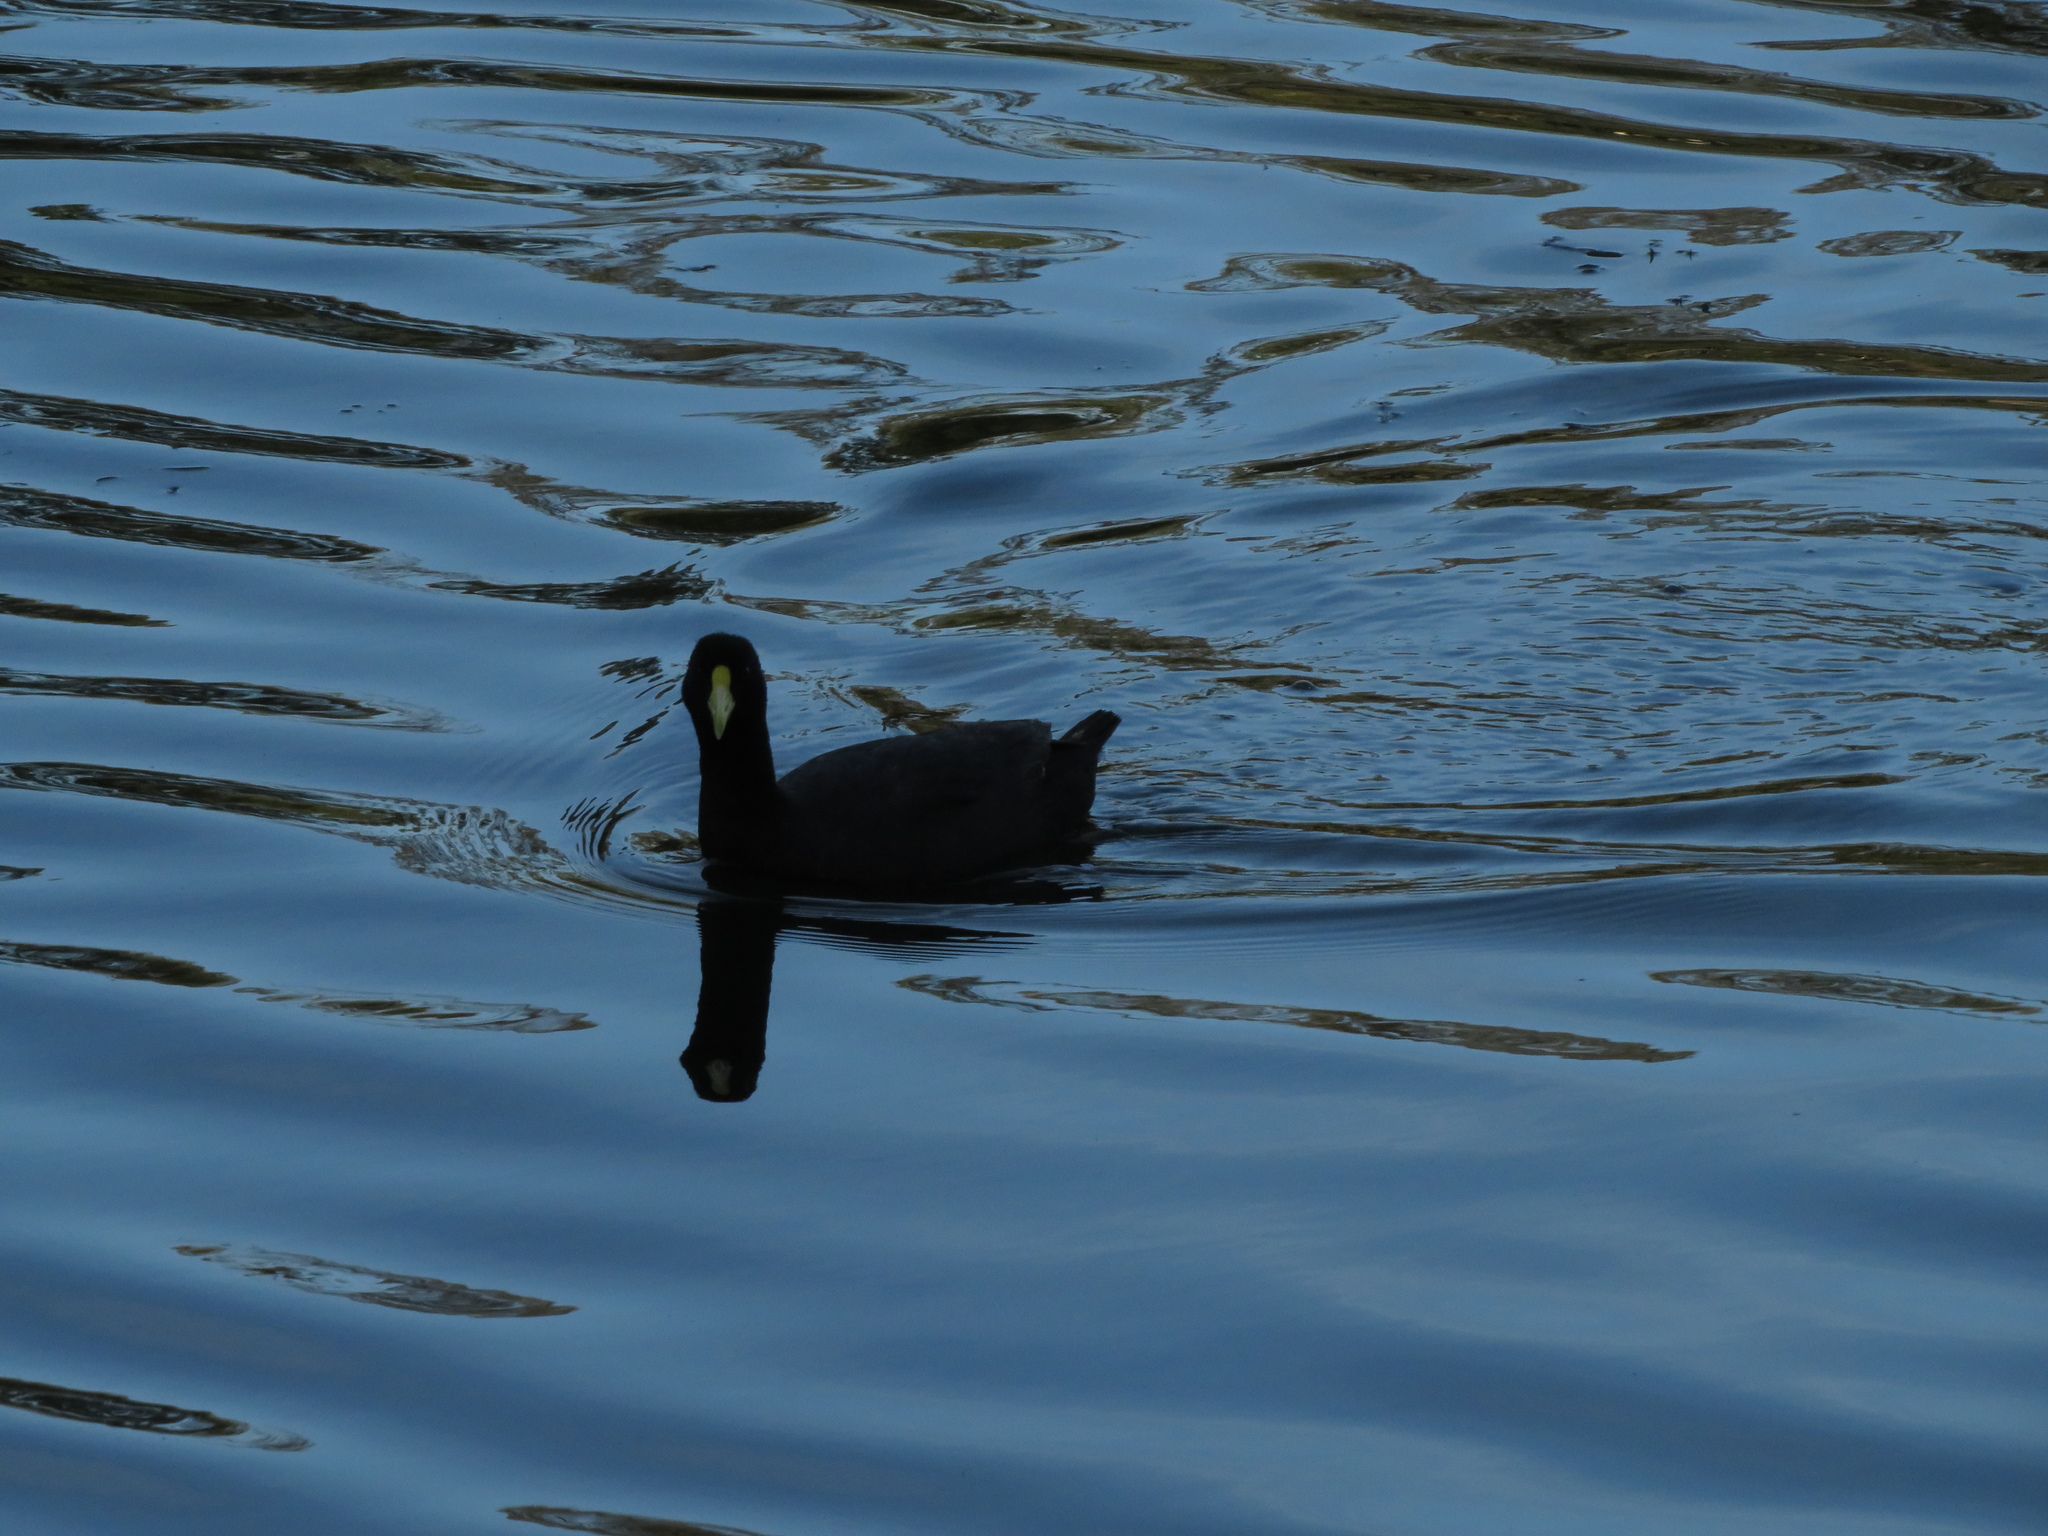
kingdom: Animalia
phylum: Chordata
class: Aves
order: Gruiformes
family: Rallidae
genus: Fulica
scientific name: Fulica leucoptera
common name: White-winged coot
